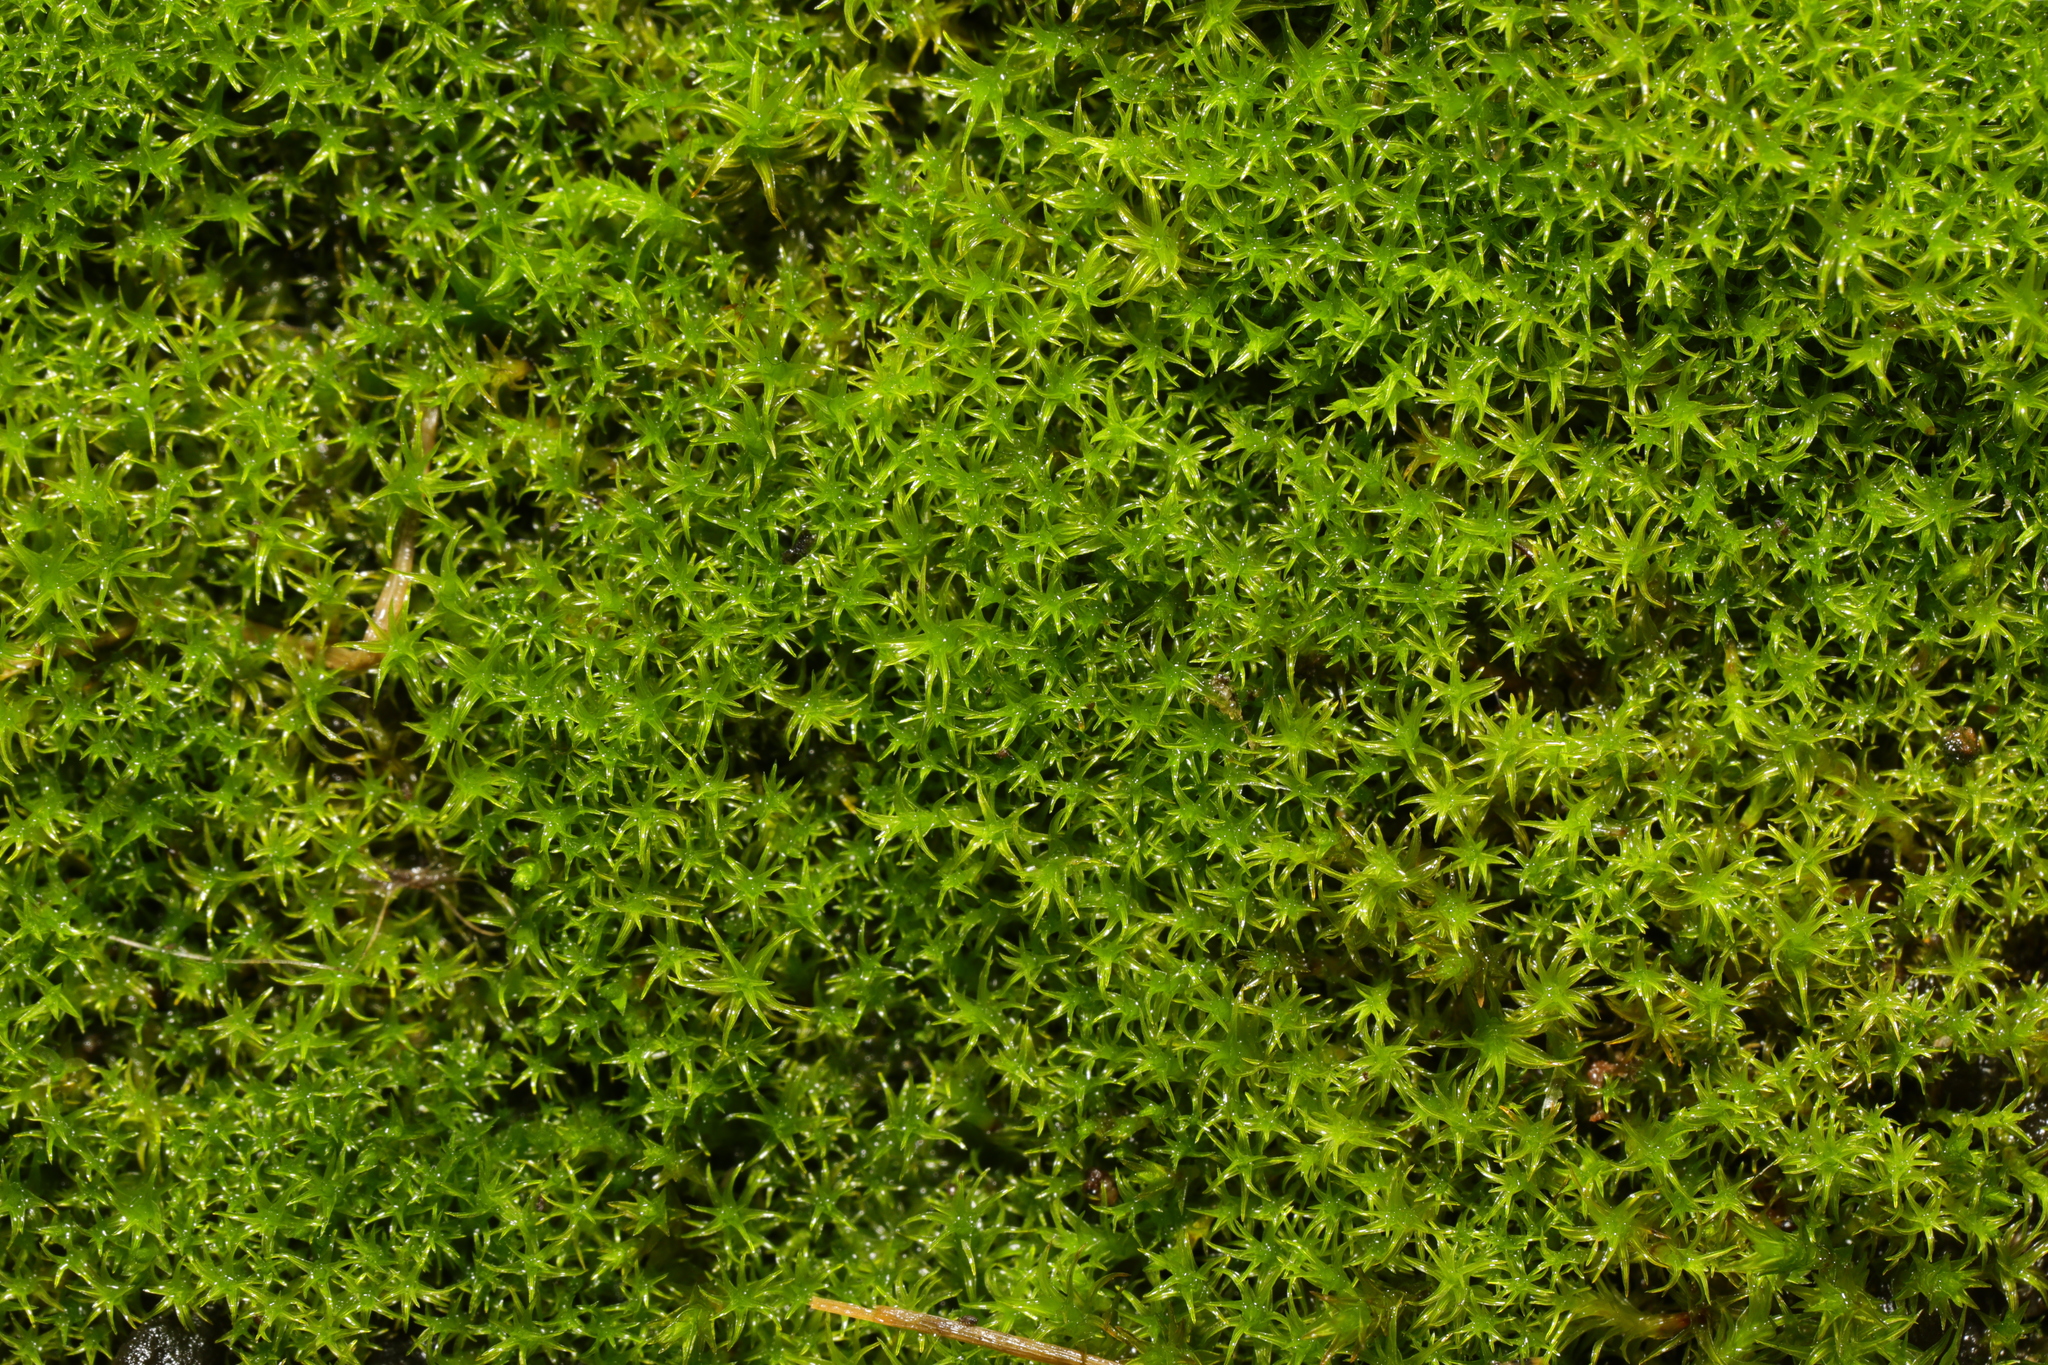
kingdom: Plantae
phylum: Bryophyta
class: Bryopsida
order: Pottiales
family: Pottiaceae
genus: Vinealobryum
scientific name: Vinealobryum insulanum
